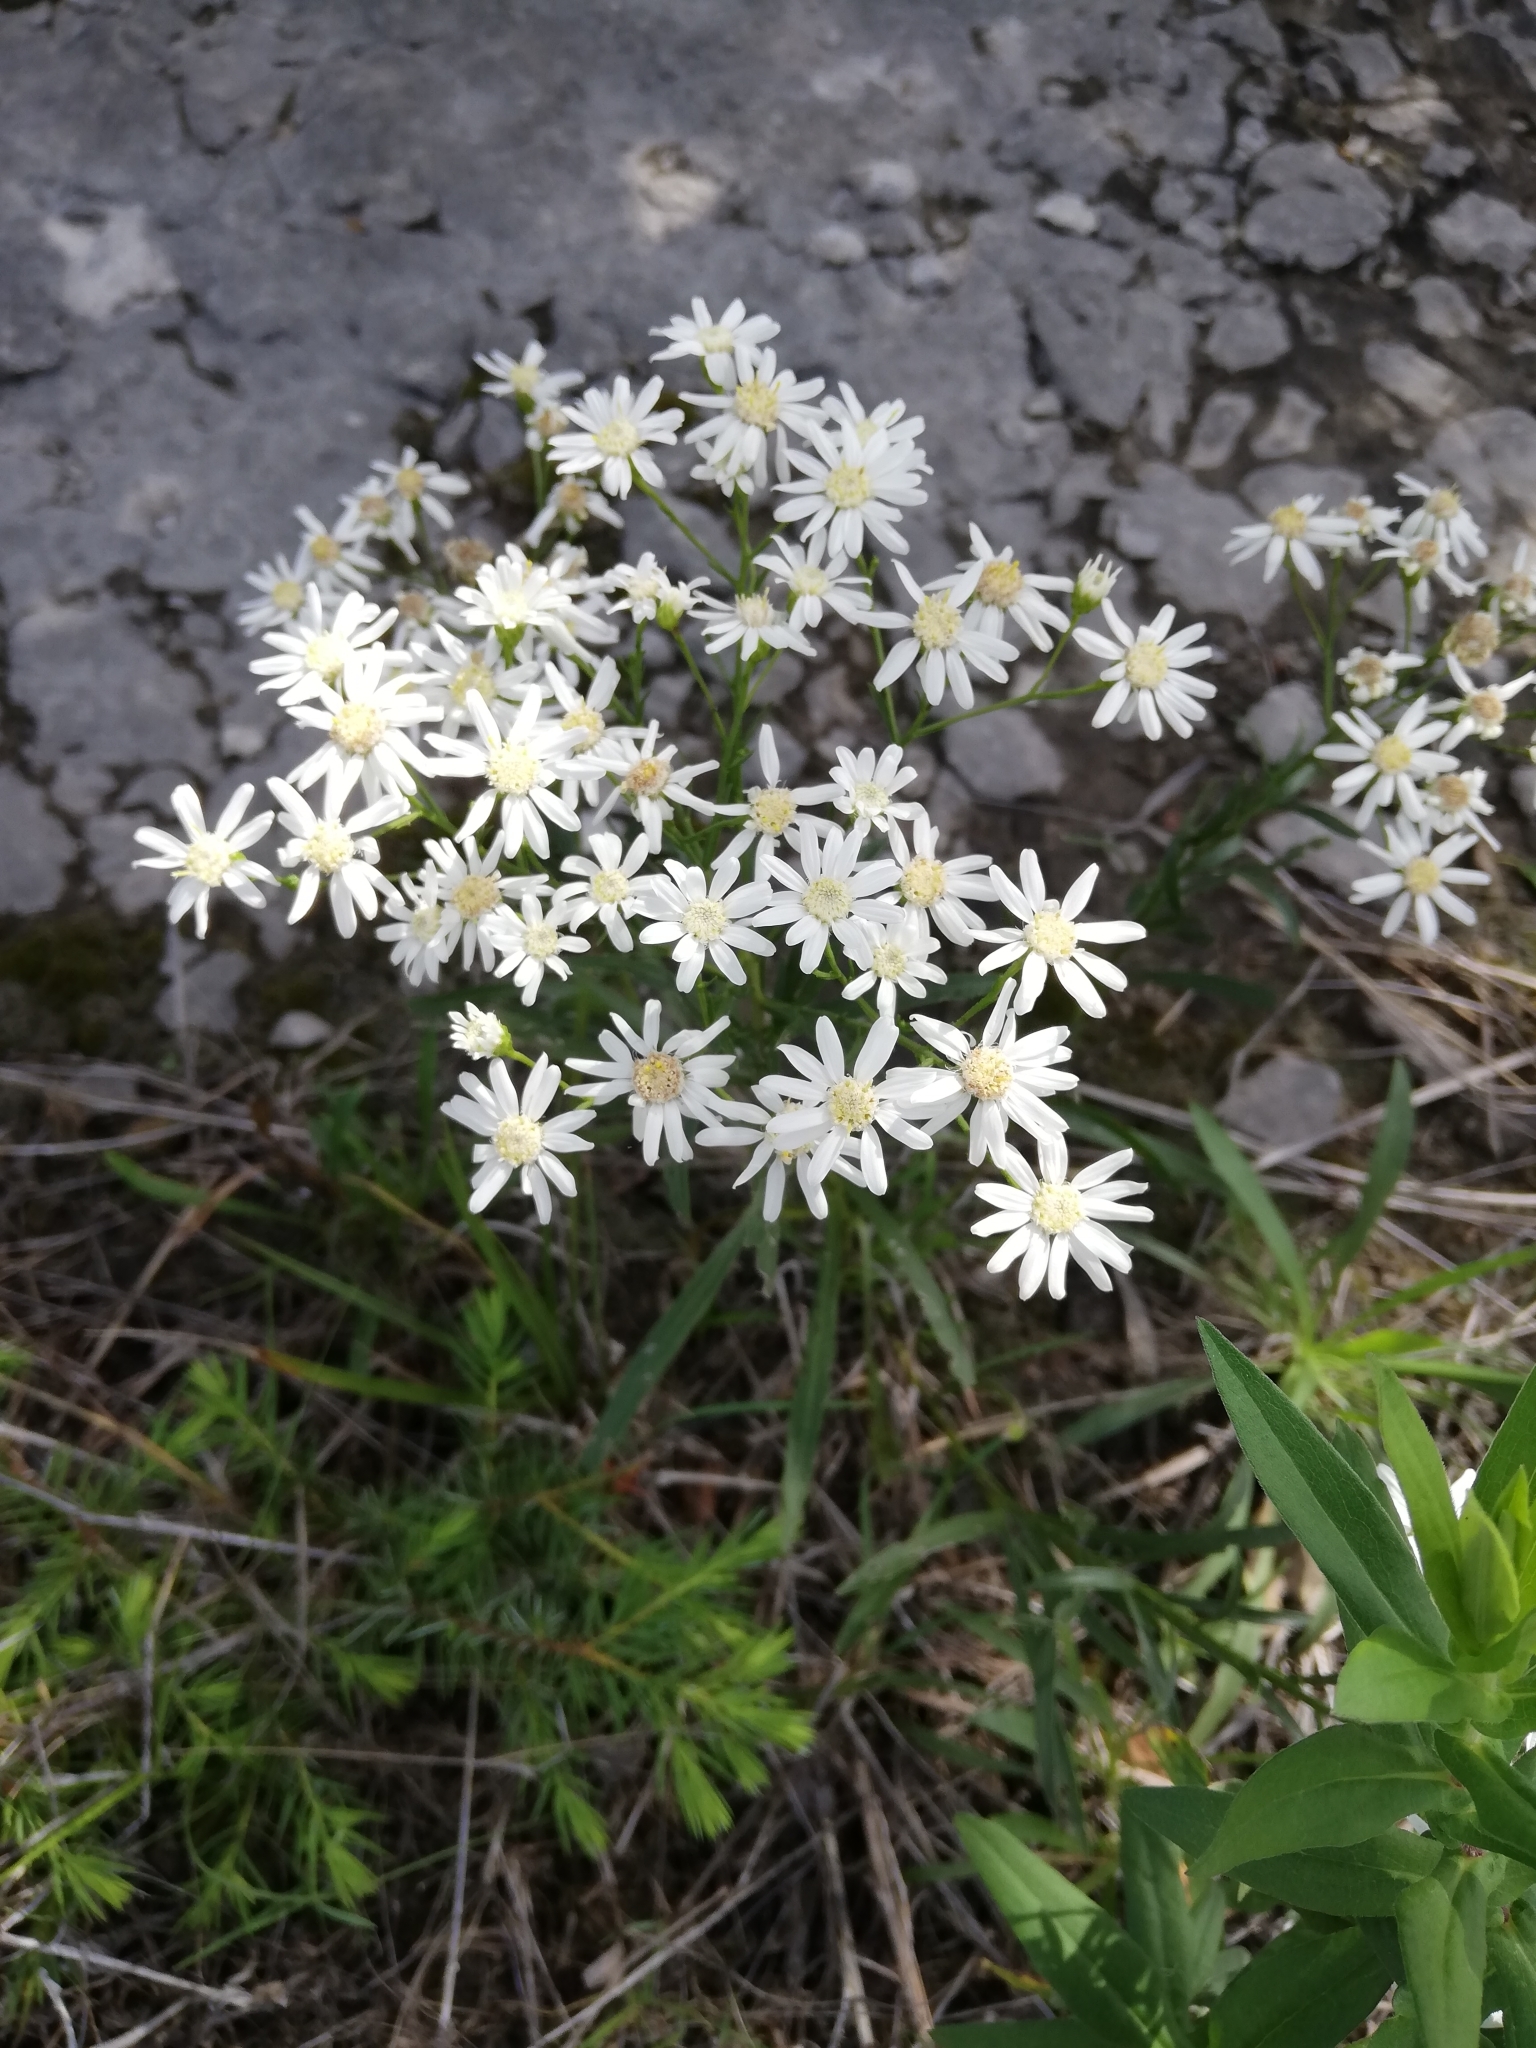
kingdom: Plantae
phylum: Tracheophyta
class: Magnoliopsida
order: Asterales
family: Asteraceae
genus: Solidago
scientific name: Solidago ptarmicoides
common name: White flat-top goldenrod
